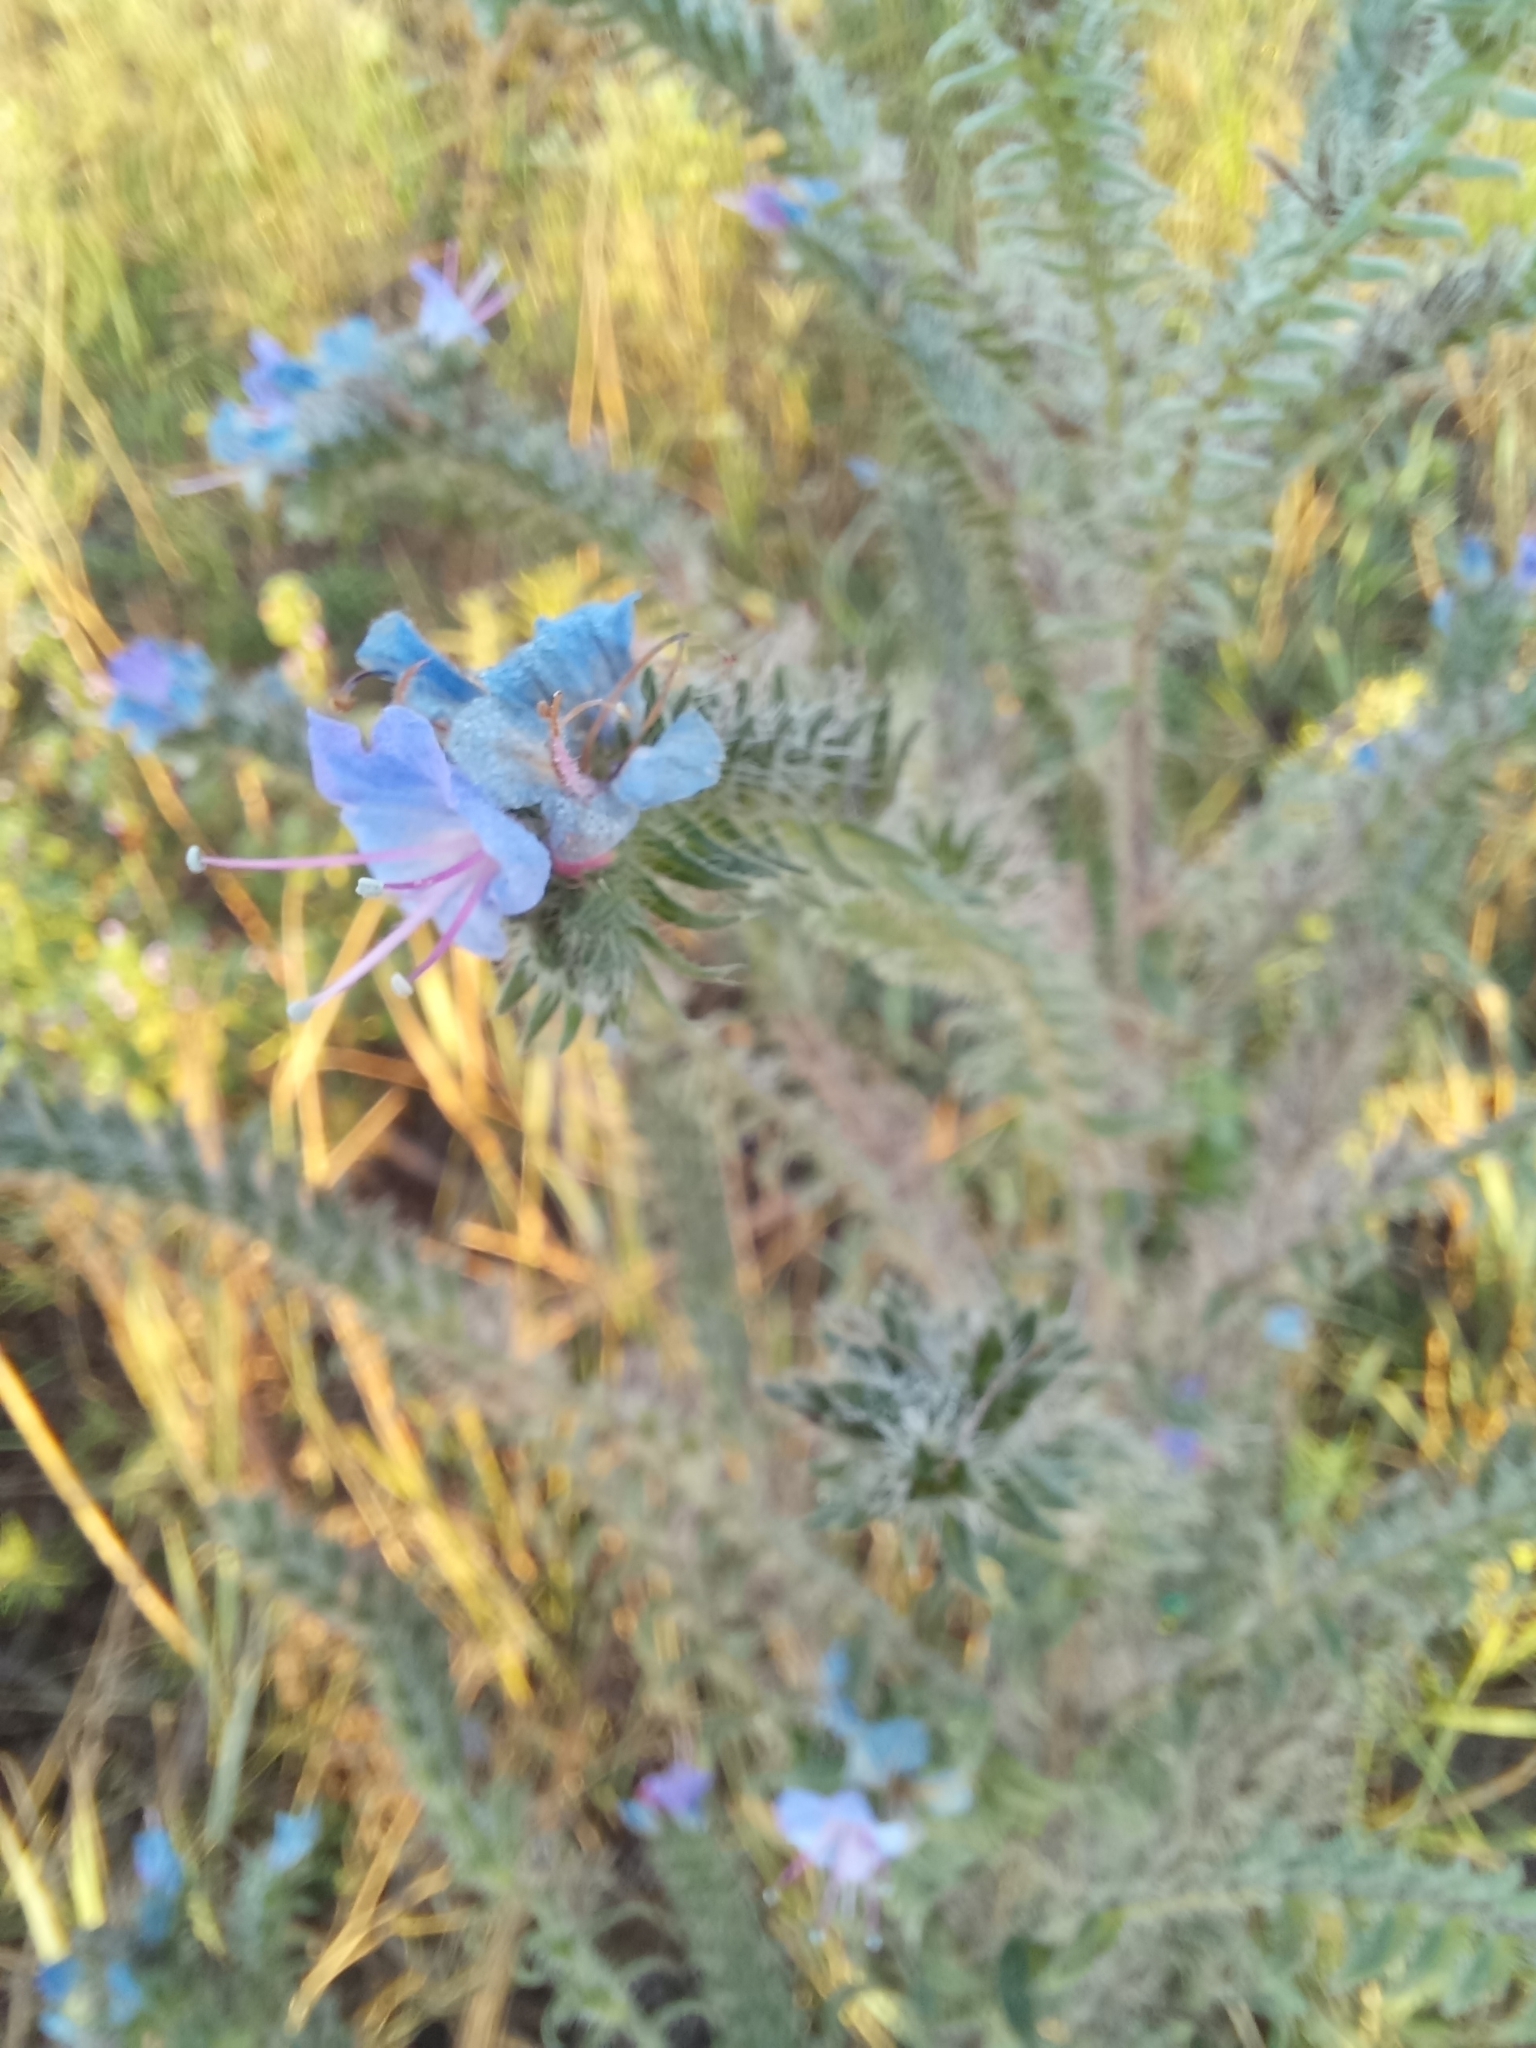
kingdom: Plantae
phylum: Tracheophyta
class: Magnoliopsida
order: Boraginales
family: Boraginaceae
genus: Echium
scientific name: Echium vulgare
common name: Common viper's bugloss
